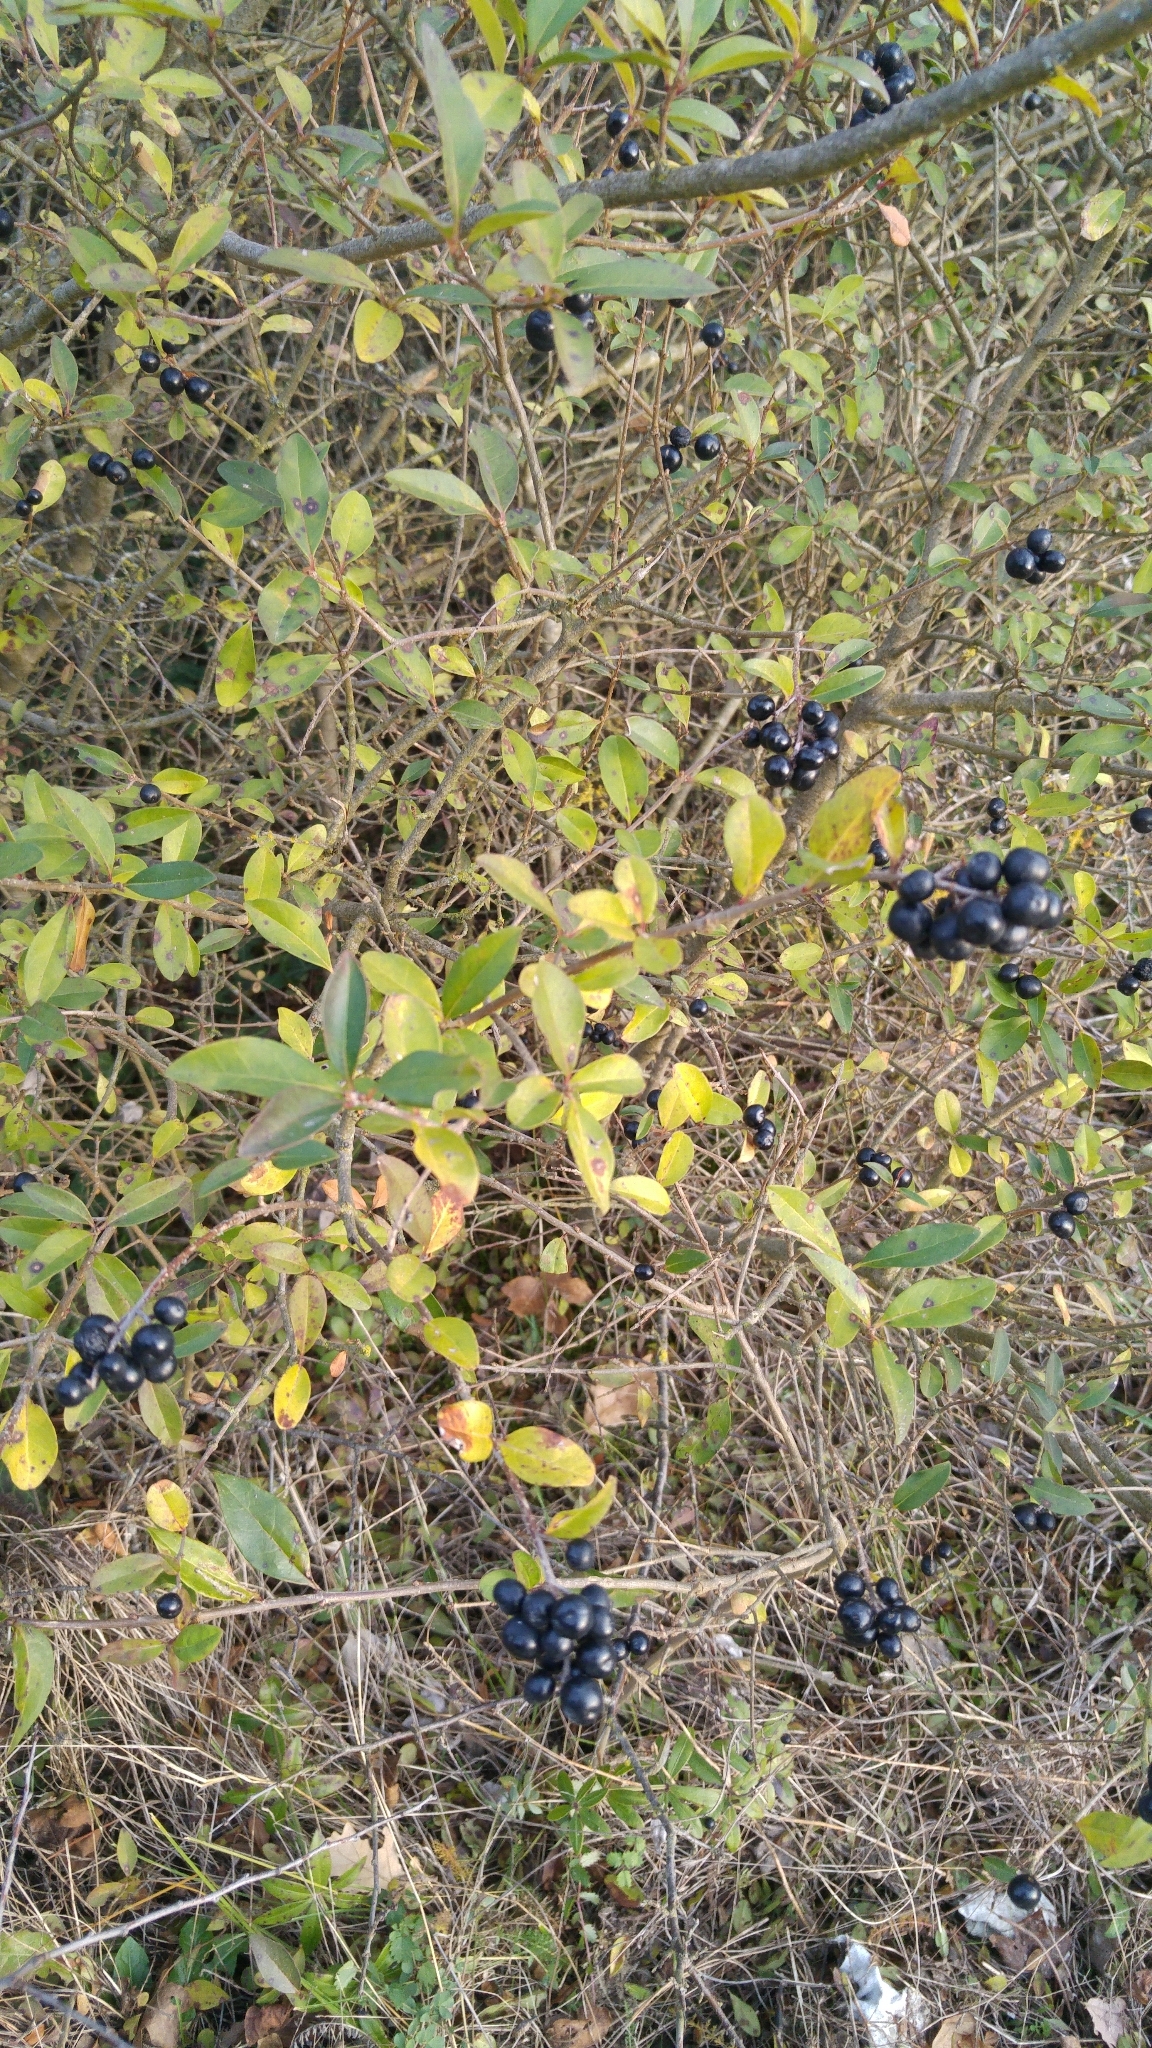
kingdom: Plantae
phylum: Tracheophyta
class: Magnoliopsida
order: Lamiales
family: Oleaceae
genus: Ligustrum
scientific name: Ligustrum vulgare
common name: Wild privet
